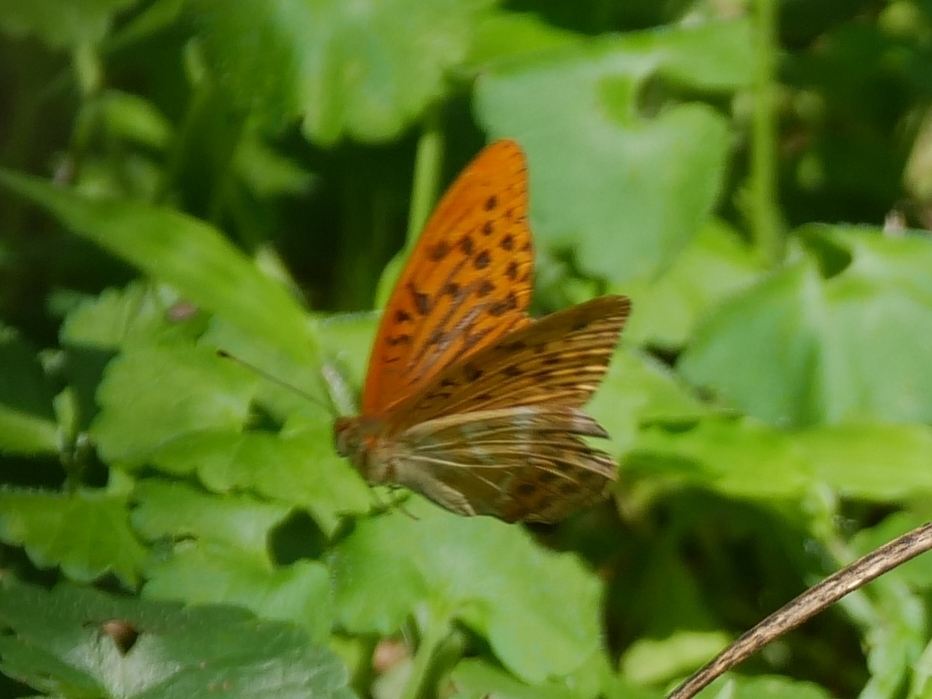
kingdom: Animalia
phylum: Arthropoda
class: Insecta
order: Lepidoptera
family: Nymphalidae
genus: Argynnis
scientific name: Argynnis paphia
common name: Silver-washed fritillary
